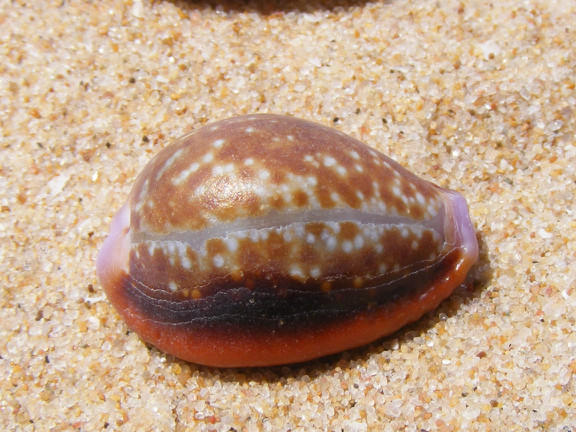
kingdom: Animalia
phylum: Mollusca
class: Gastropoda
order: Littorinimorpha
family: Cypraeidae
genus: Naria
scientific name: Naria helvola
